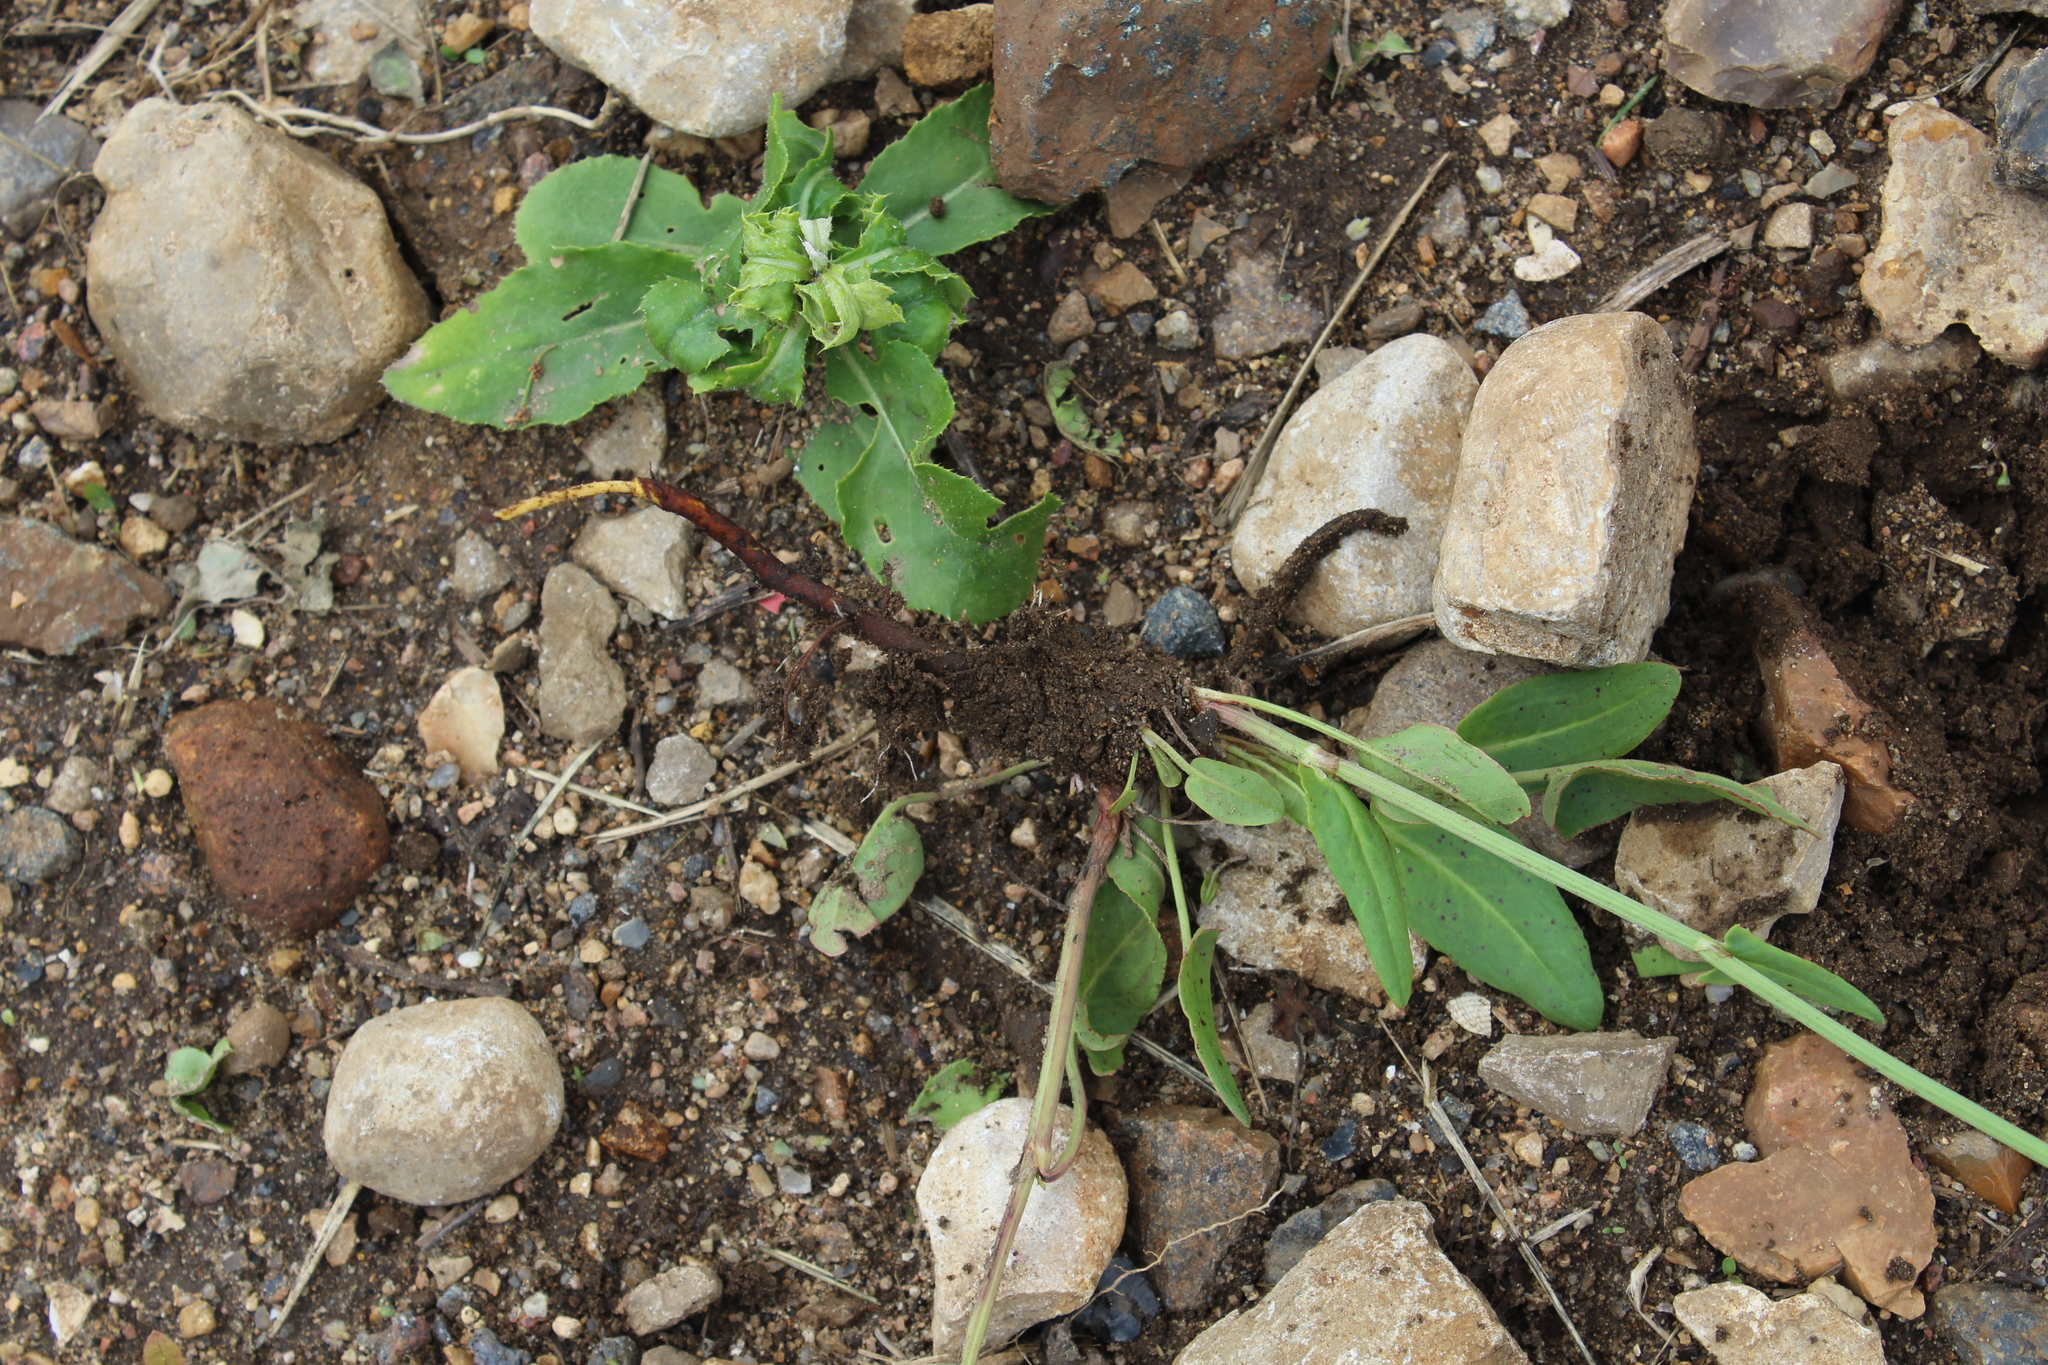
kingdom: Plantae
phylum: Tracheophyta
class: Magnoliopsida
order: Caryophyllales
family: Polygonaceae
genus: Rumex
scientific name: Rumex thyrsiflorus
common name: Garden sorrel
